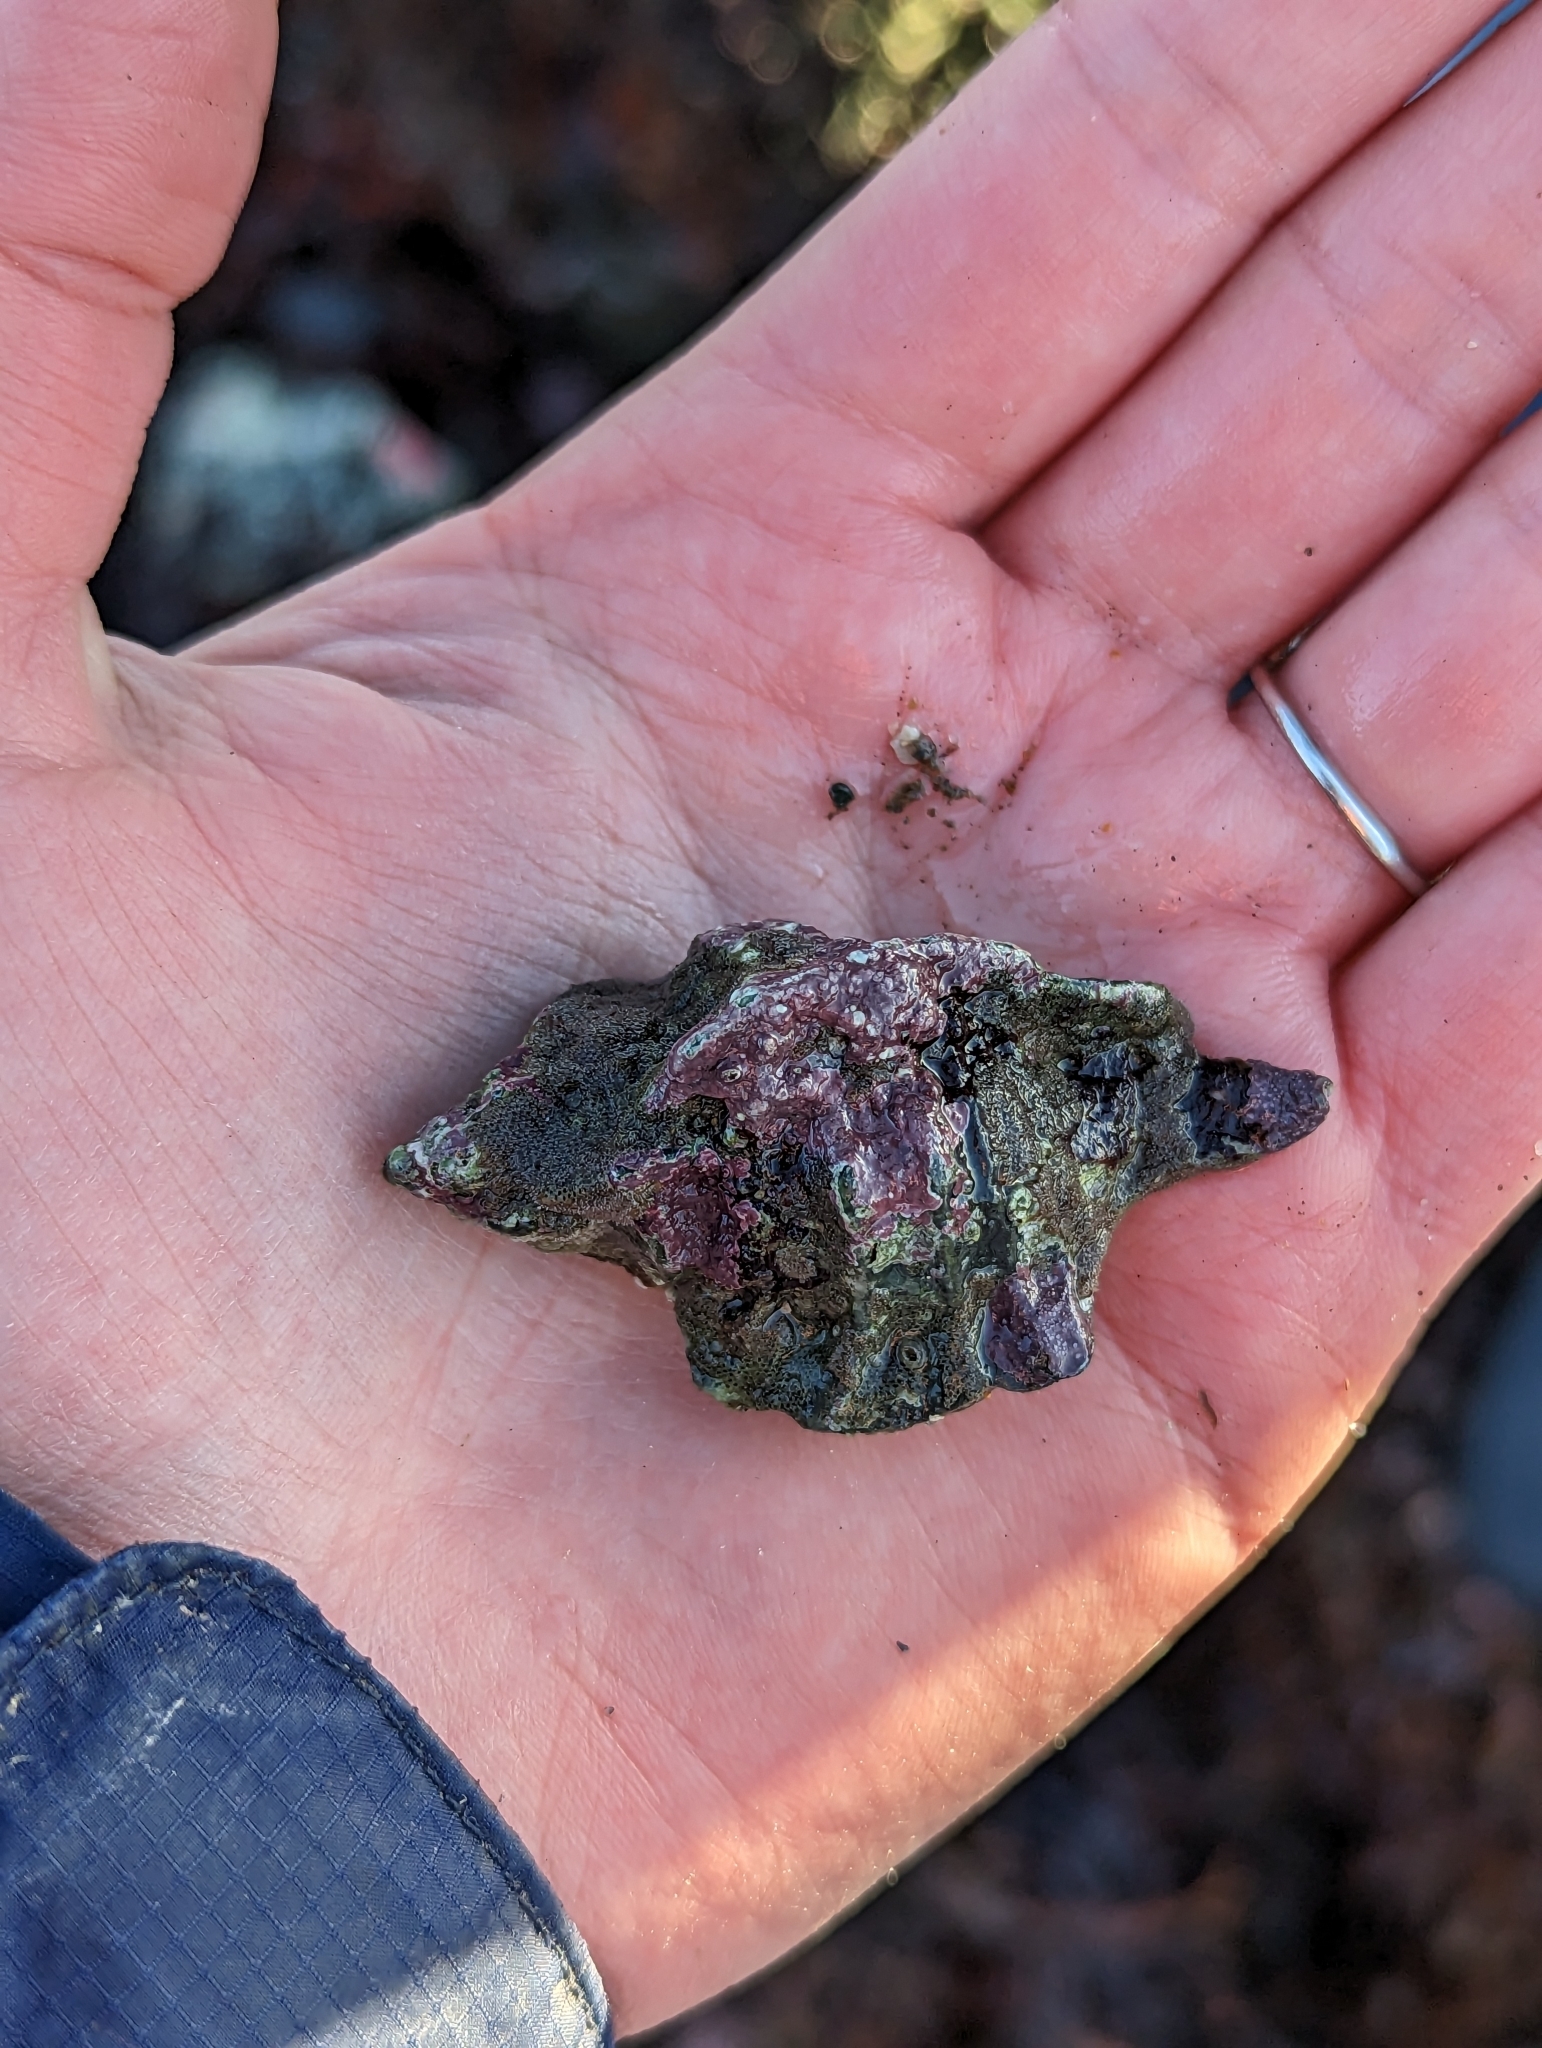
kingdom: Animalia
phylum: Mollusca
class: Gastropoda
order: Neogastropoda
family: Muricidae
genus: Ceratostoma
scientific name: Ceratostoma foliatum
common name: Foliate thorn purpura
